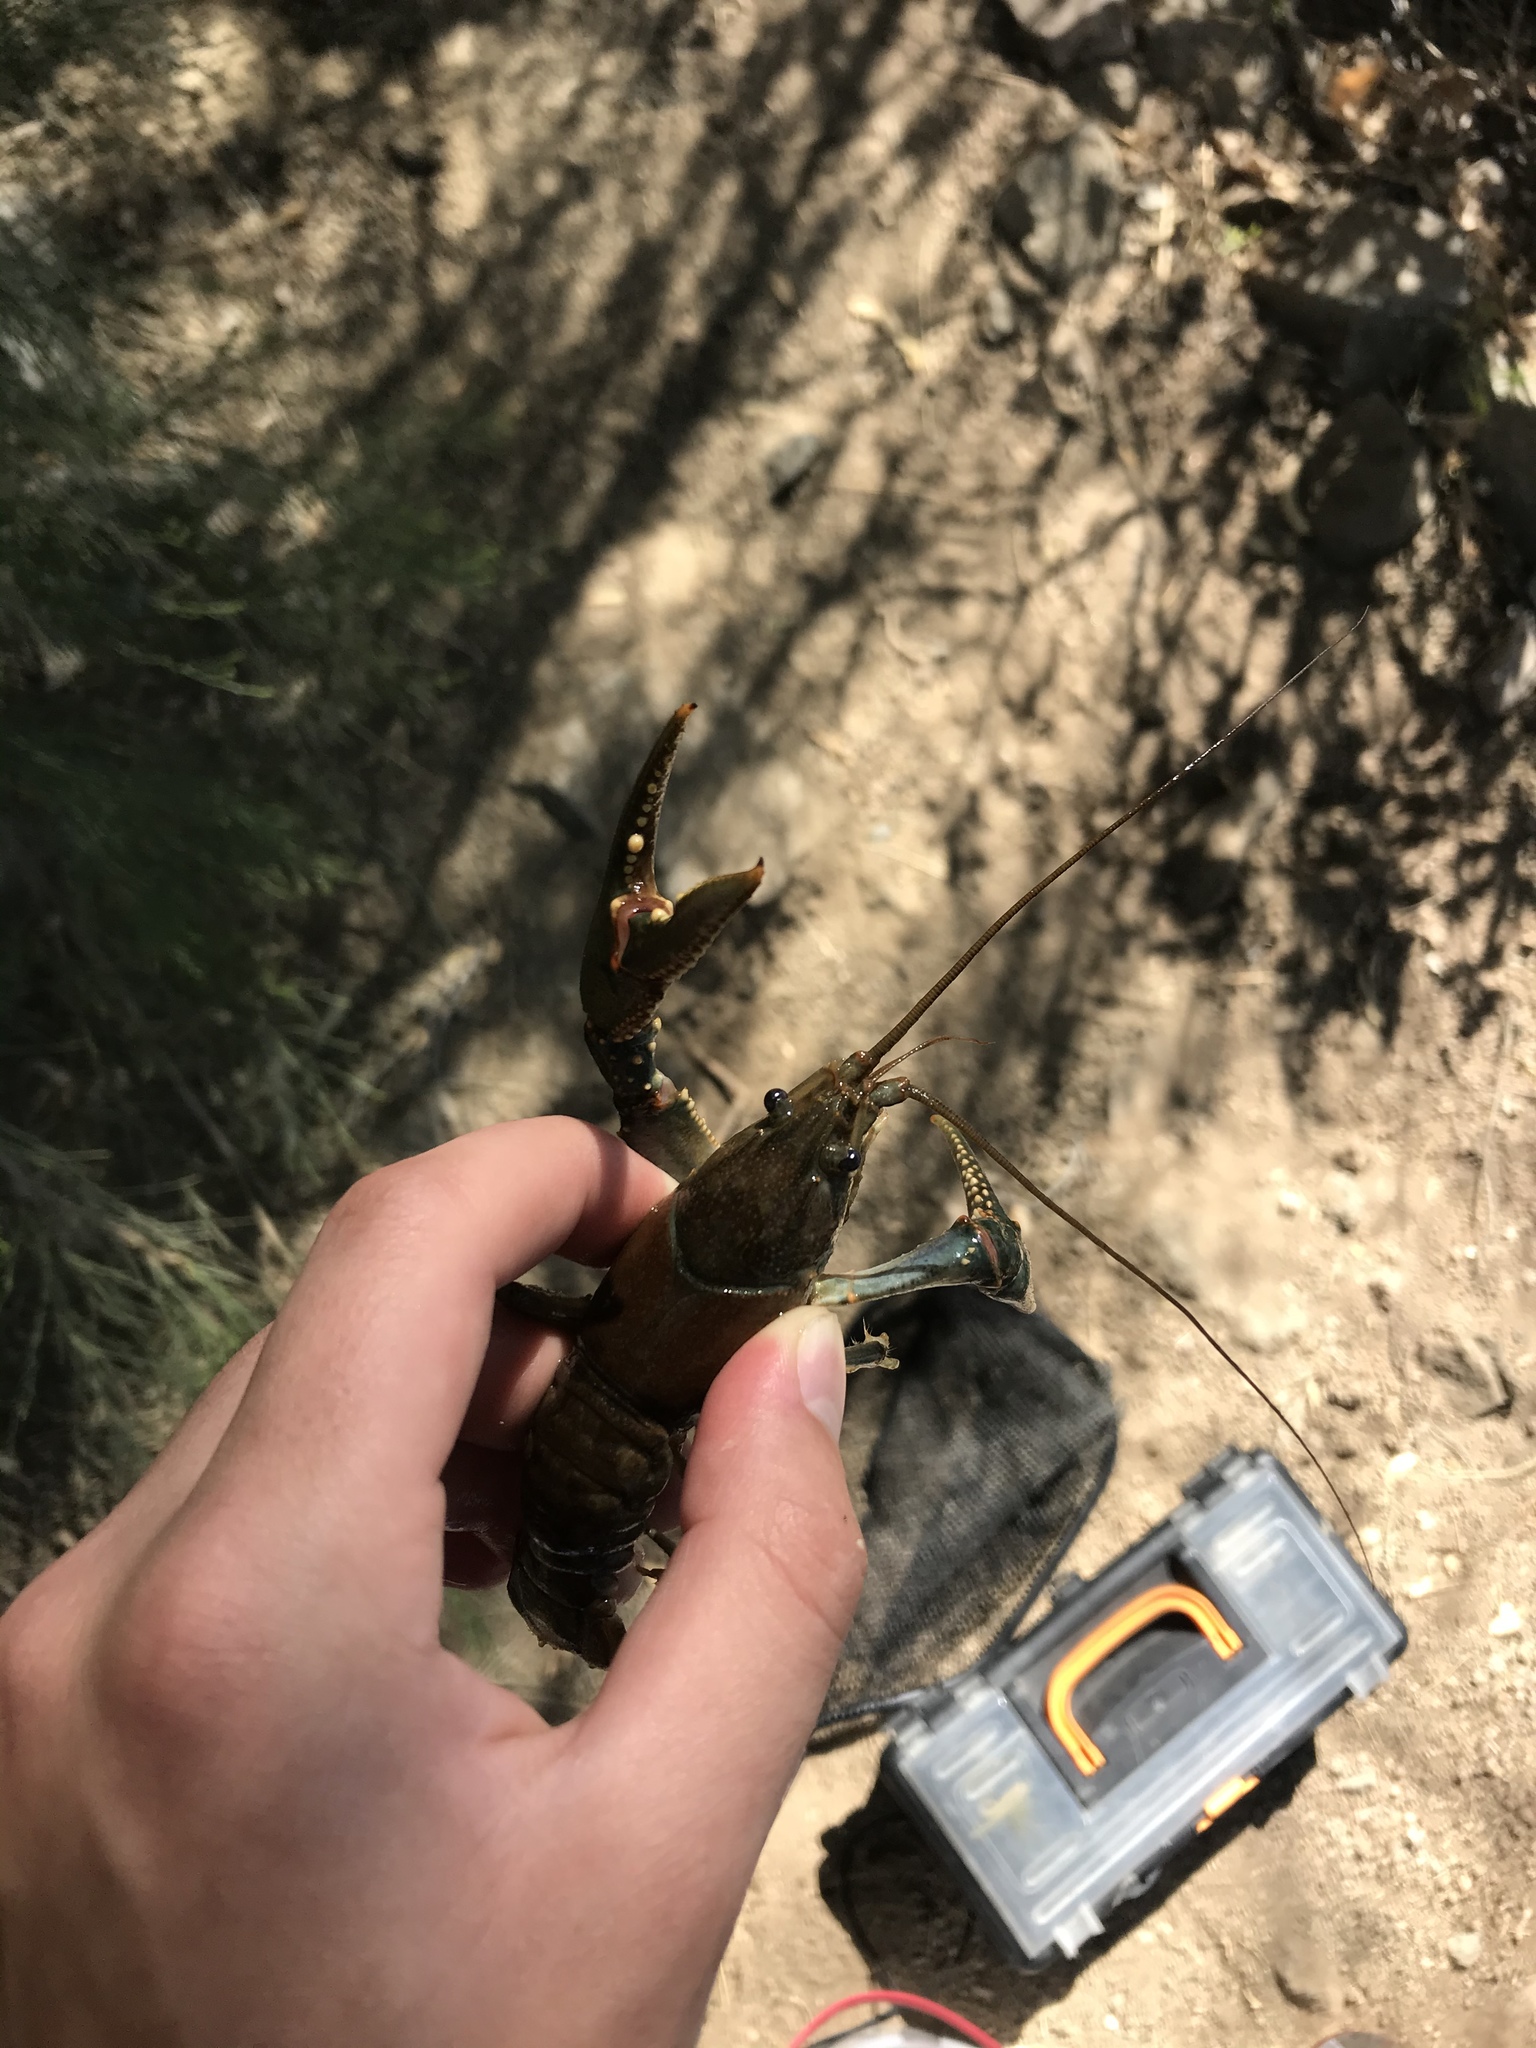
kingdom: Animalia
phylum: Arthropoda
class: Malacostraca
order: Decapoda
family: Cambaridae
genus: Faxonius
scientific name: Faxonius virilis
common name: Virile crayfish
